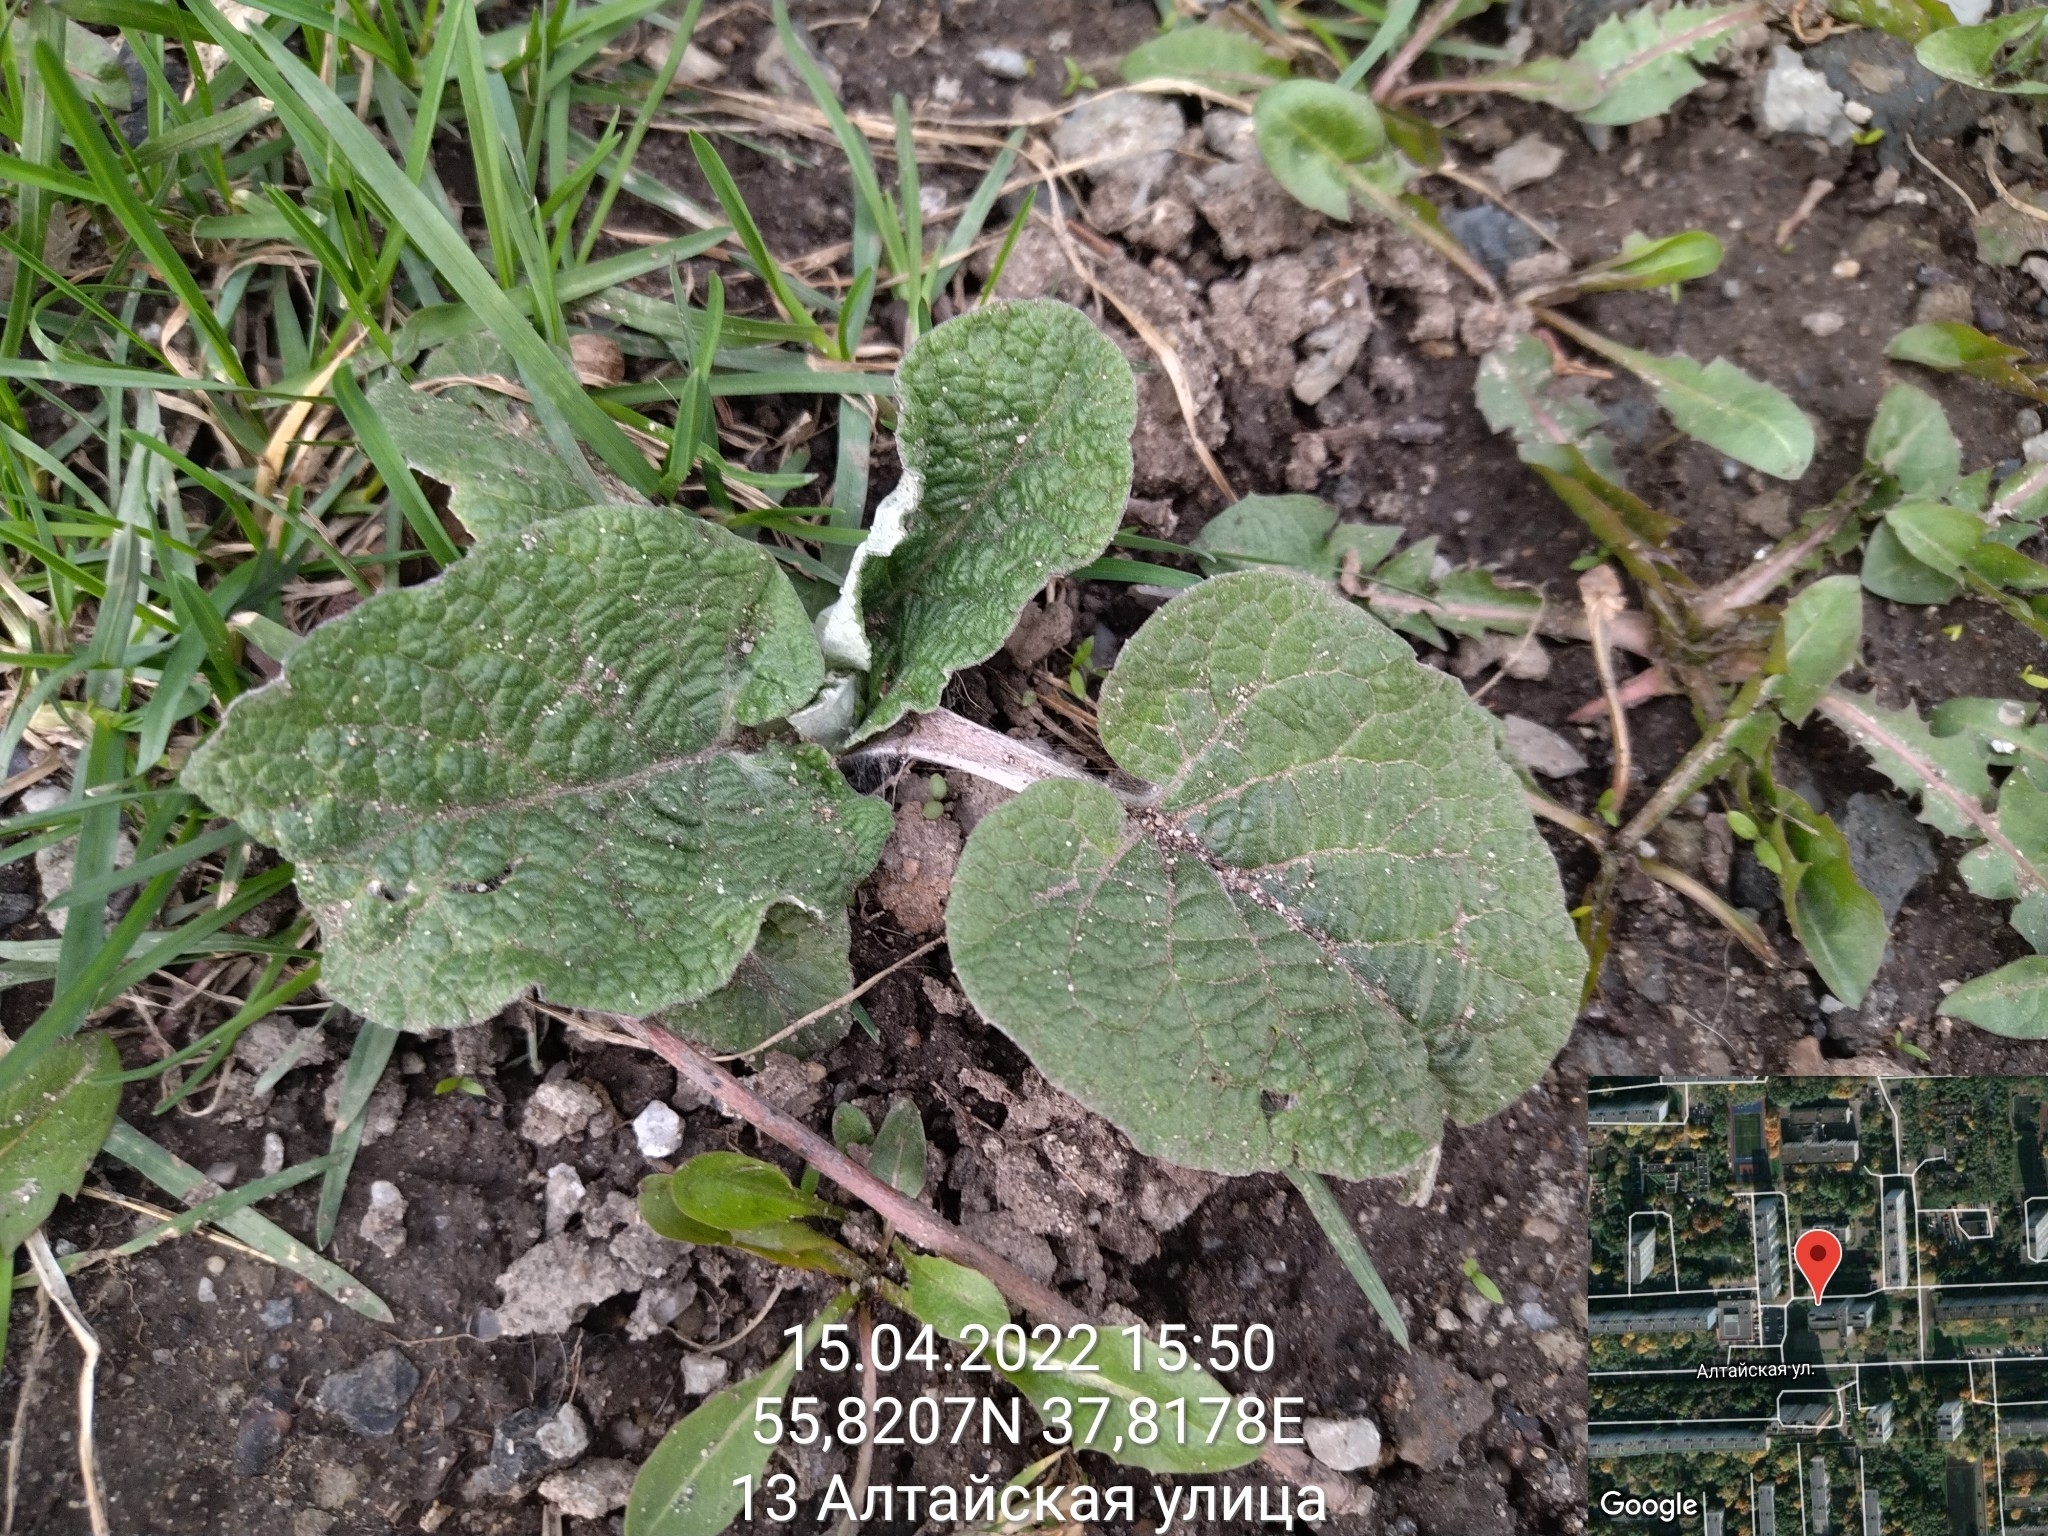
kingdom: Plantae
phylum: Tracheophyta
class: Magnoliopsida
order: Asterales
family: Asteraceae
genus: Arctium
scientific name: Arctium
